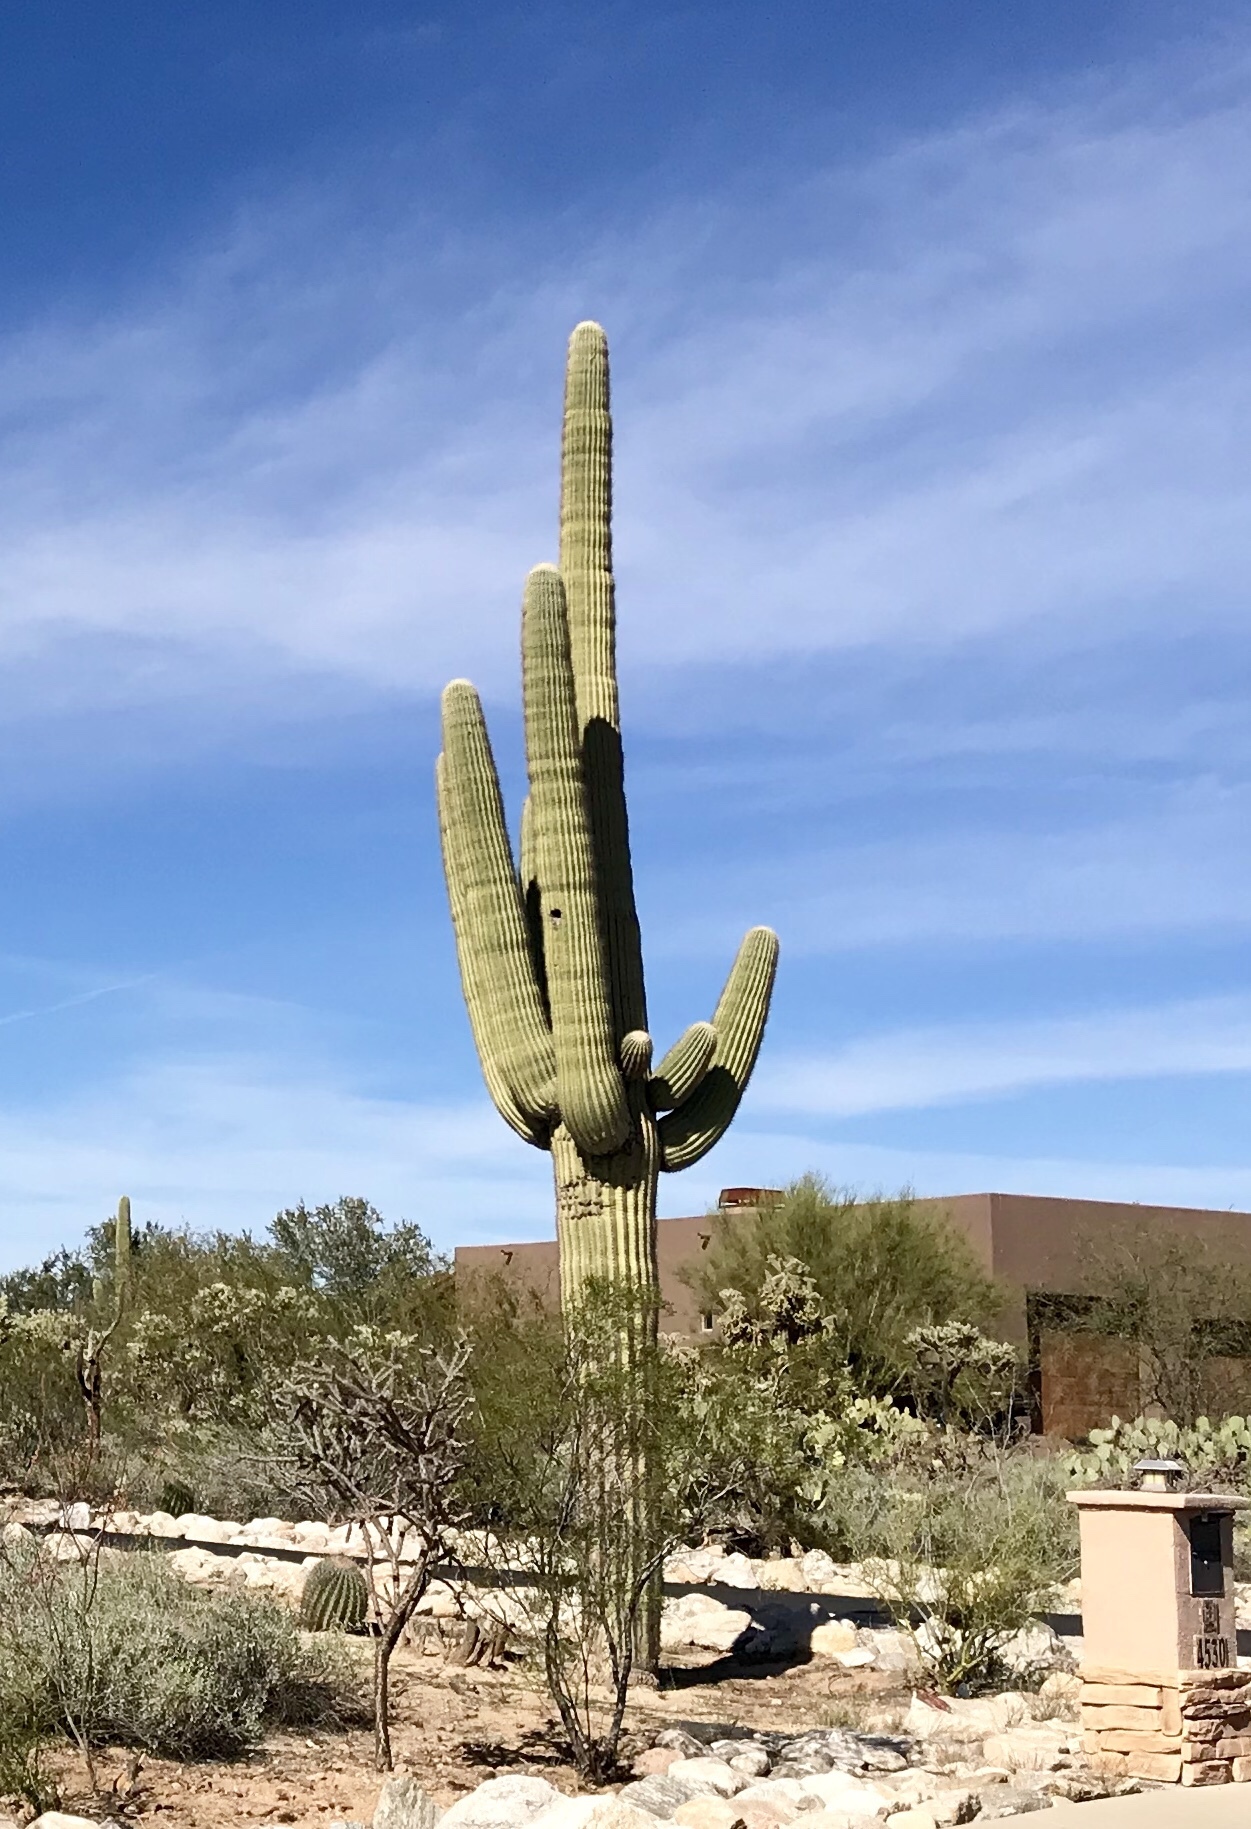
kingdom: Plantae
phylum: Tracheophyta
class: Magnoliopsida
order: Caryophyllales
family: Cactaceae
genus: Carnegiea
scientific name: Carnegiea gigantea
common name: Saguaro
